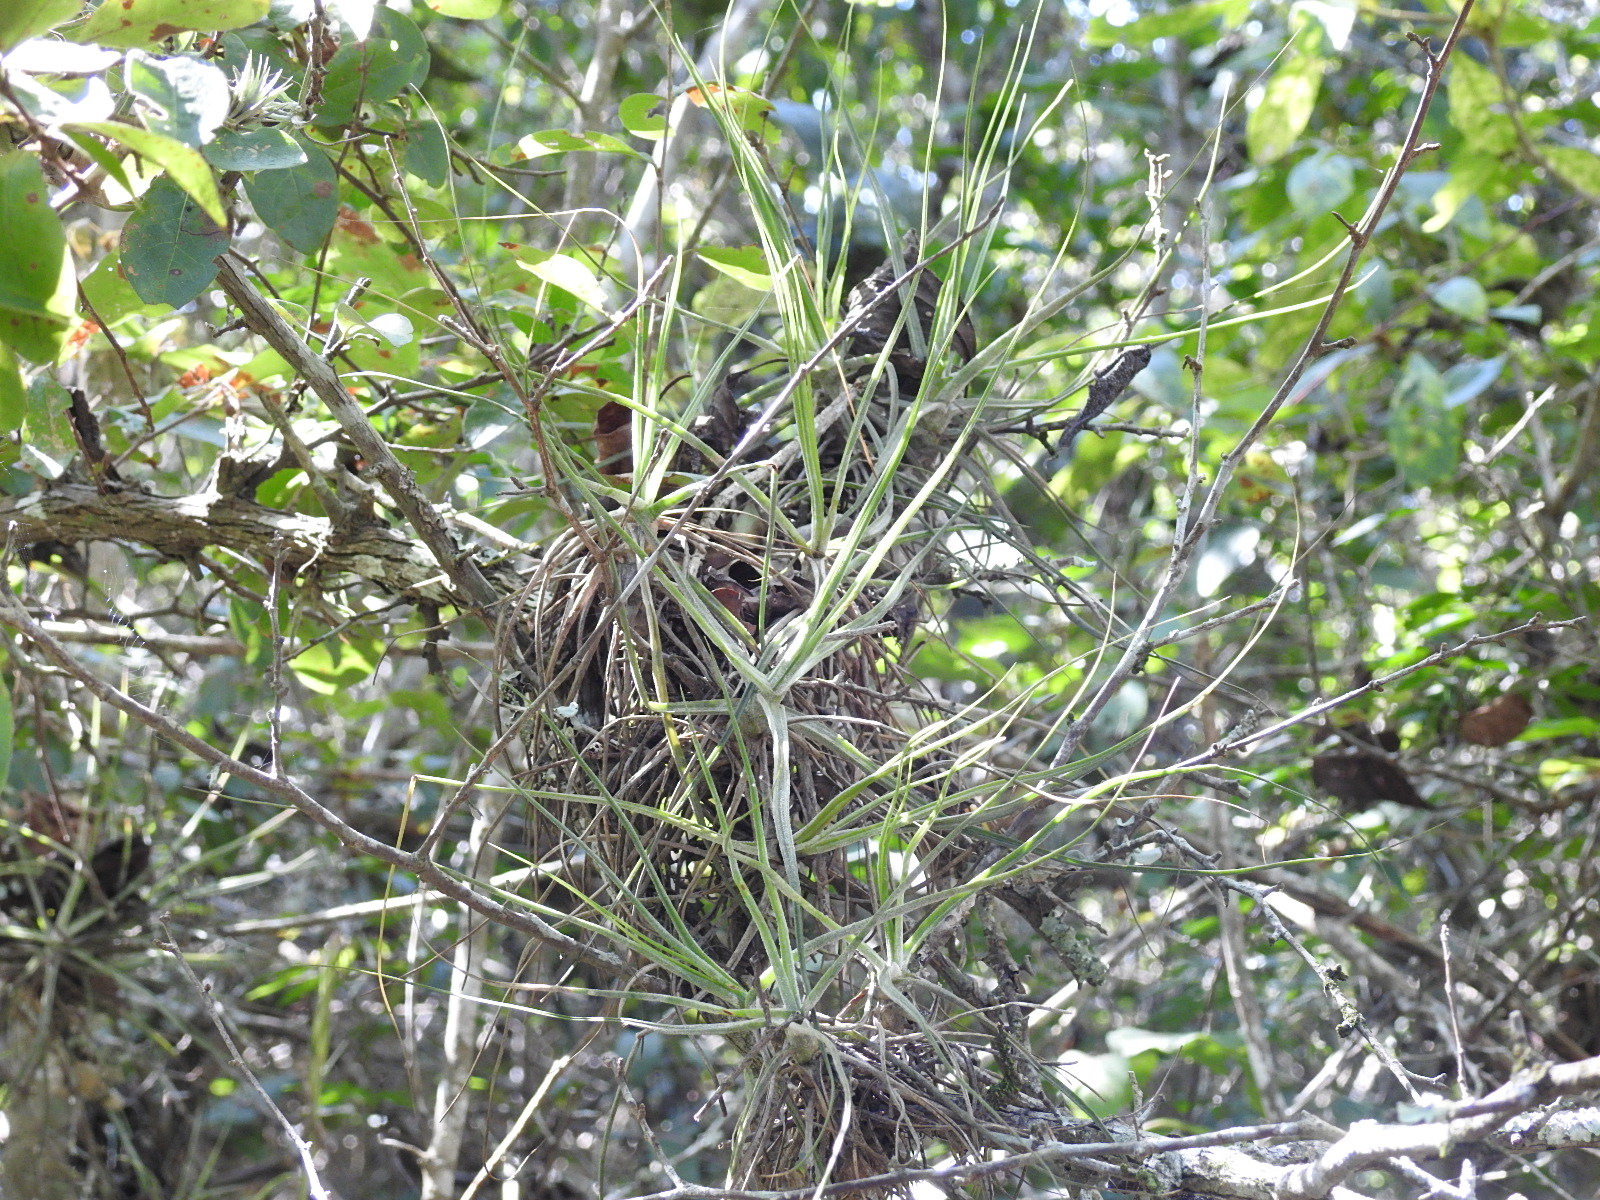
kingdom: Plantae
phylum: Tracheophyta
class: Liliopsida
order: Poales
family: Bromeliaceae
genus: Tillandsia
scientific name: Tillandsia schiedeana
